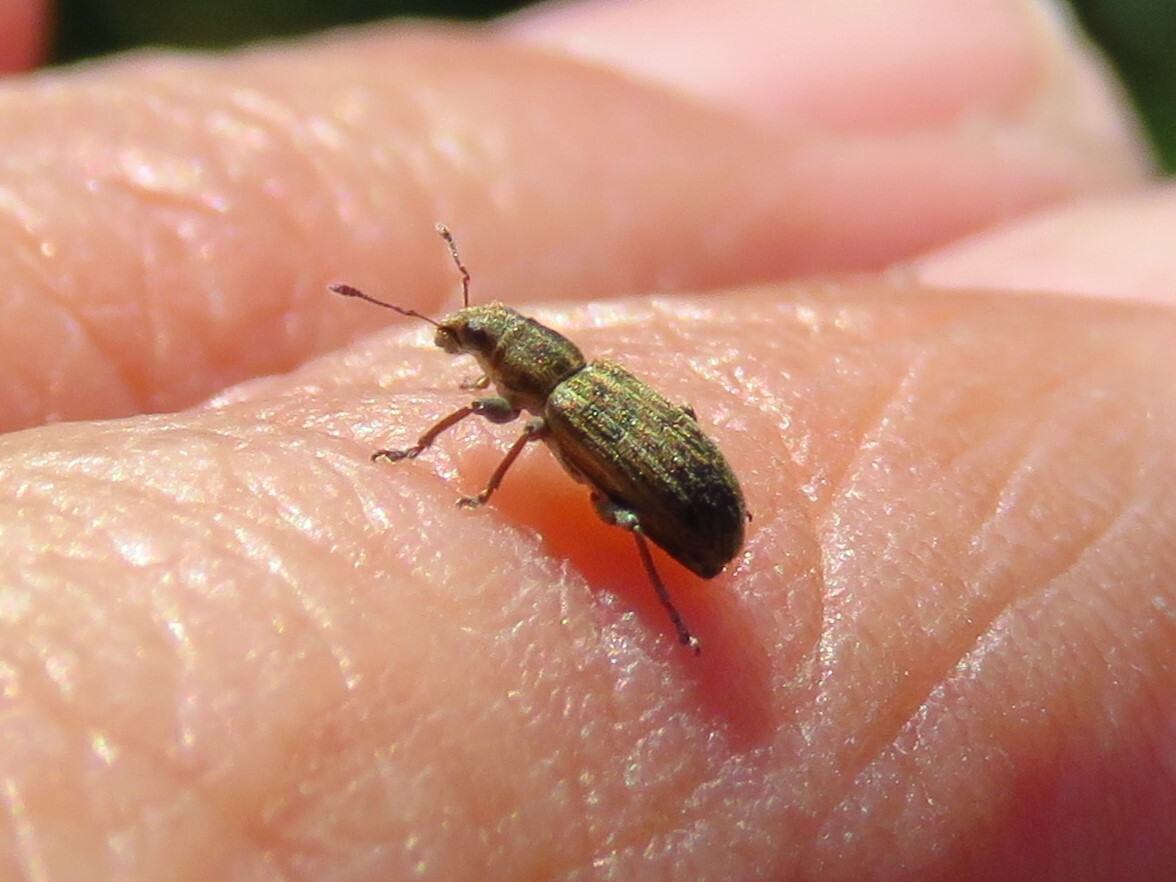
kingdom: Animalia
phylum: Arthropoda
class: Insecta
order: Coleoptera
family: Curculionidae
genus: Sitona
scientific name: Sitona lineatus
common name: Weevil
